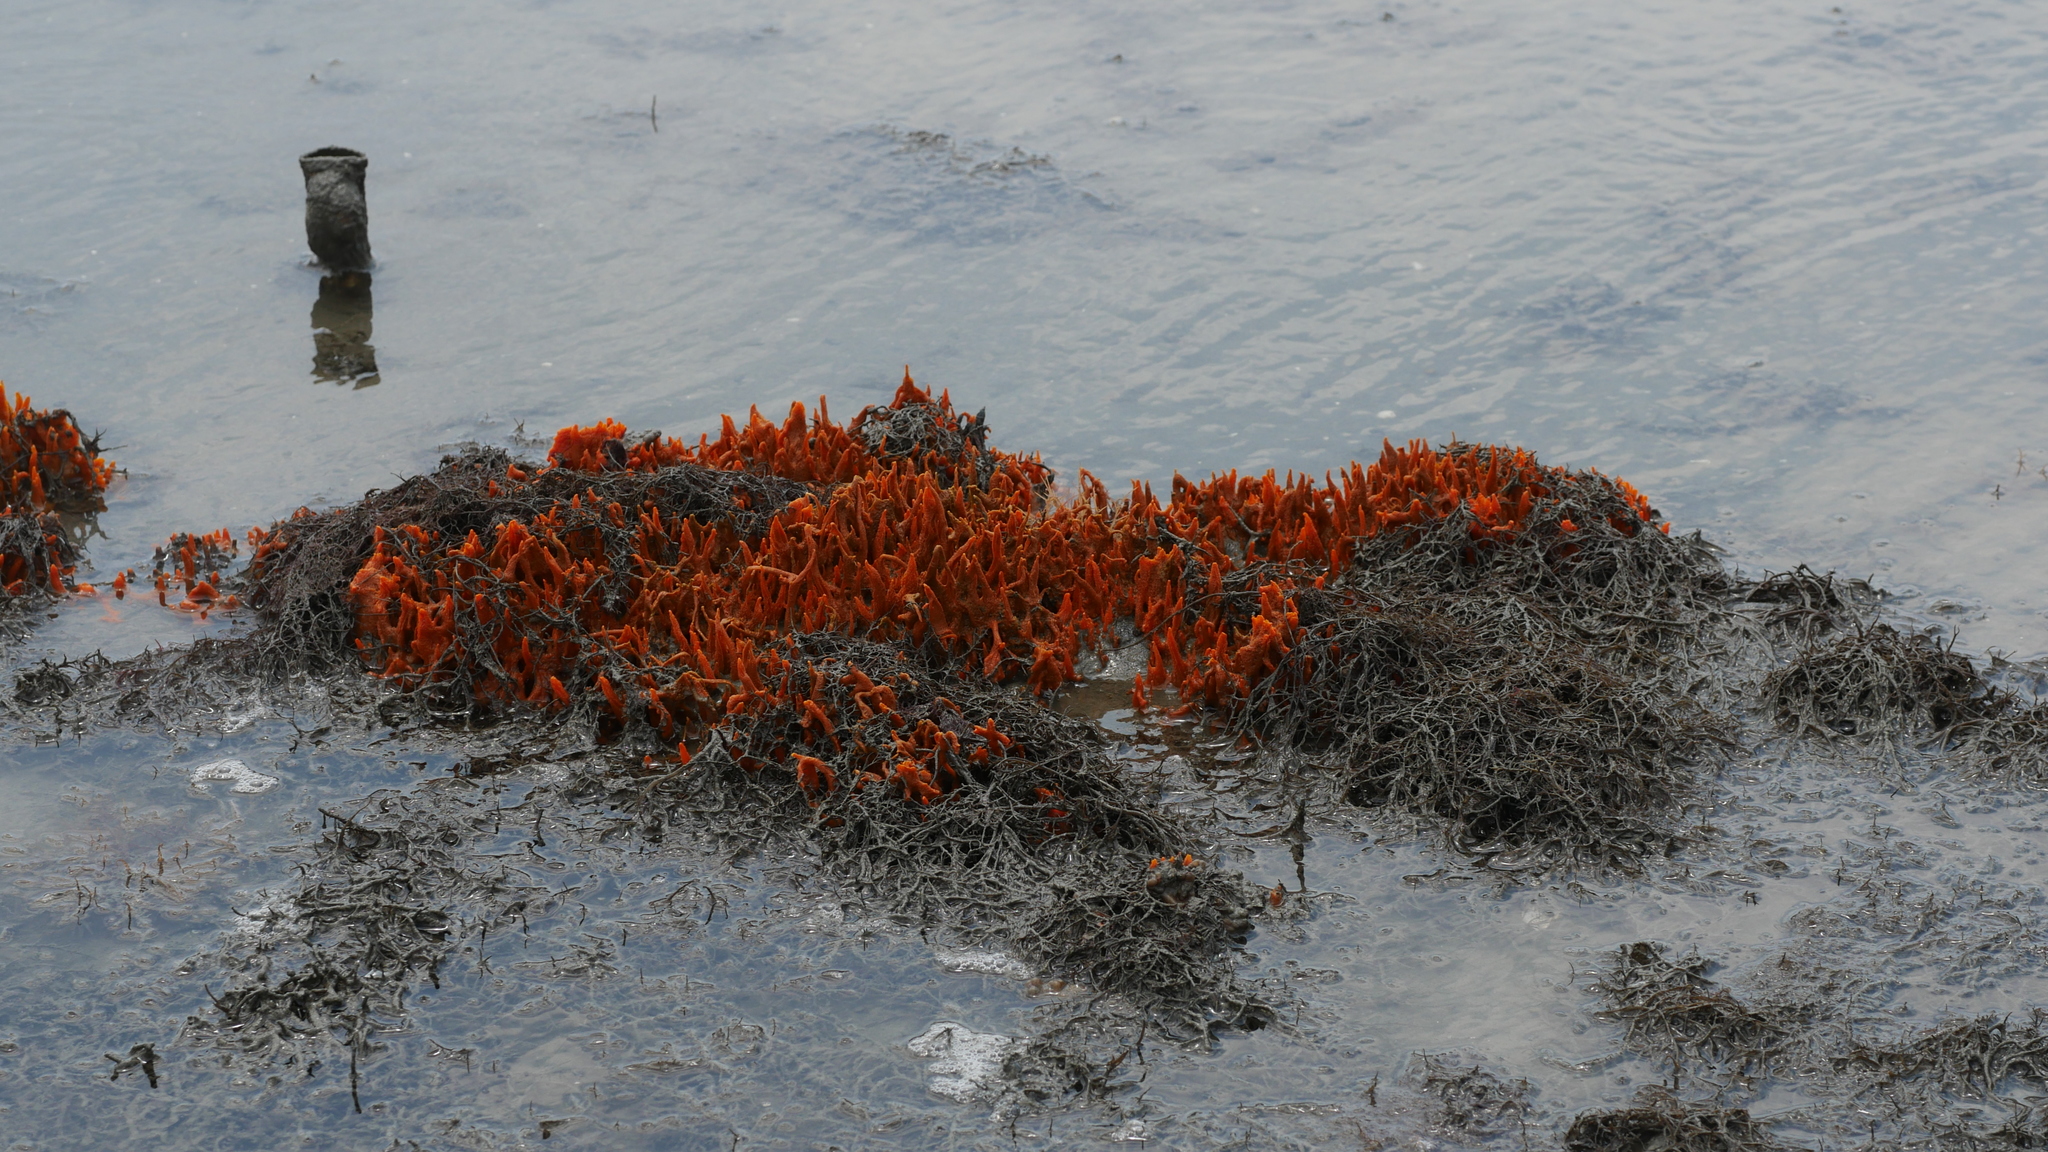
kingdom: Animalia
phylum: Porifera
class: Demospongiae
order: Suberitida
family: Halichondriidae
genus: Hymeniacidon
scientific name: Hymeniacidon heliophila
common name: Diurnal horny sponge
